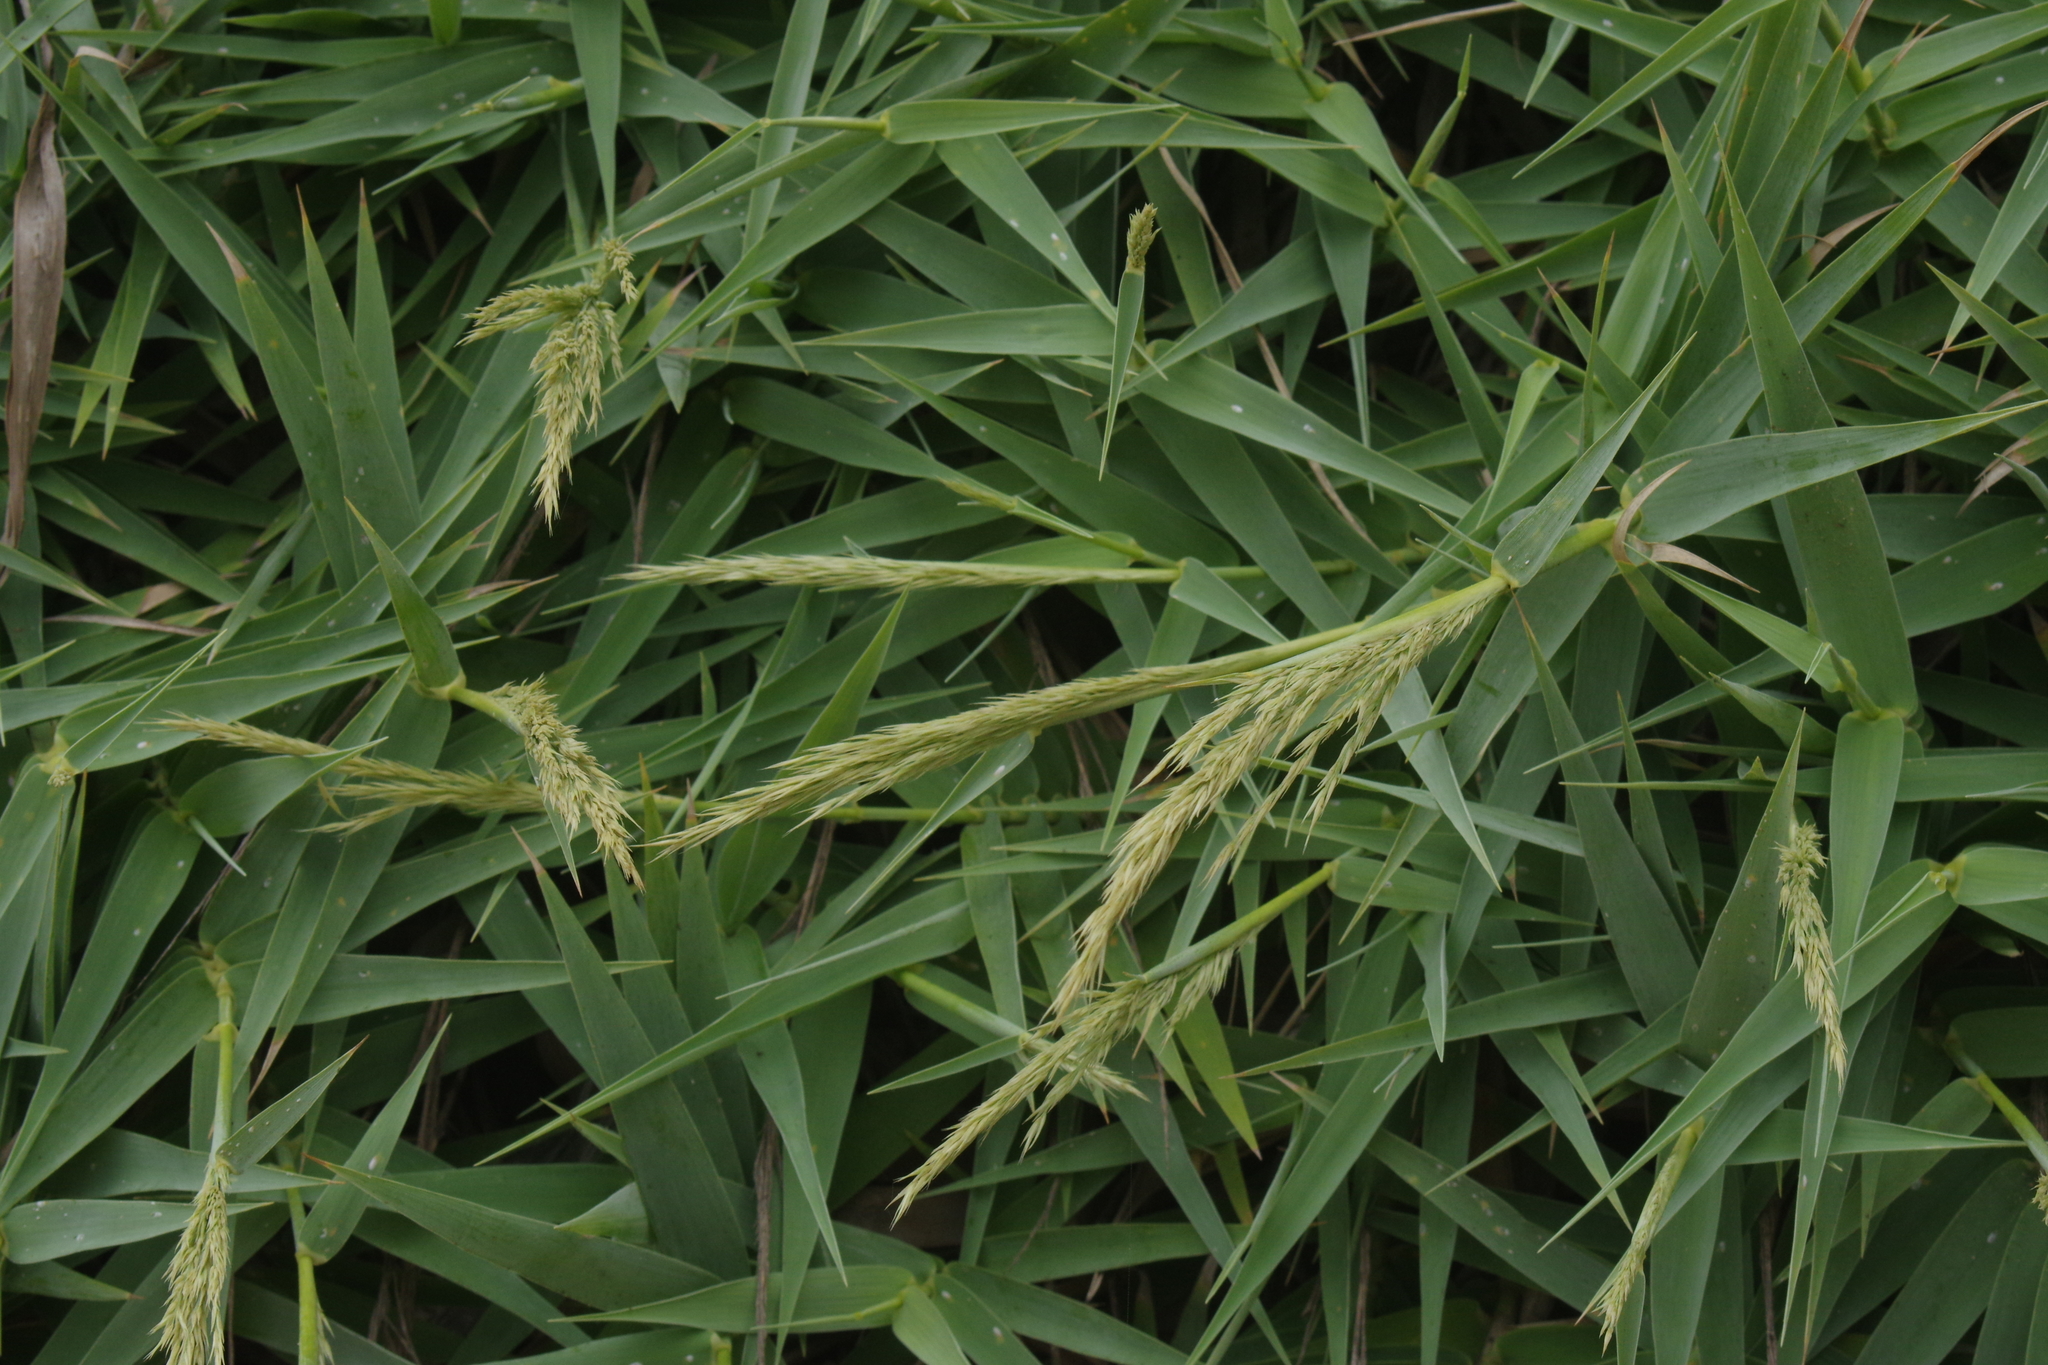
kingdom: Plantae
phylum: Tracheophyta
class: Liliopsida
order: Poales
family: Poaceae
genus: Arundo
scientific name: Arundo formosana
